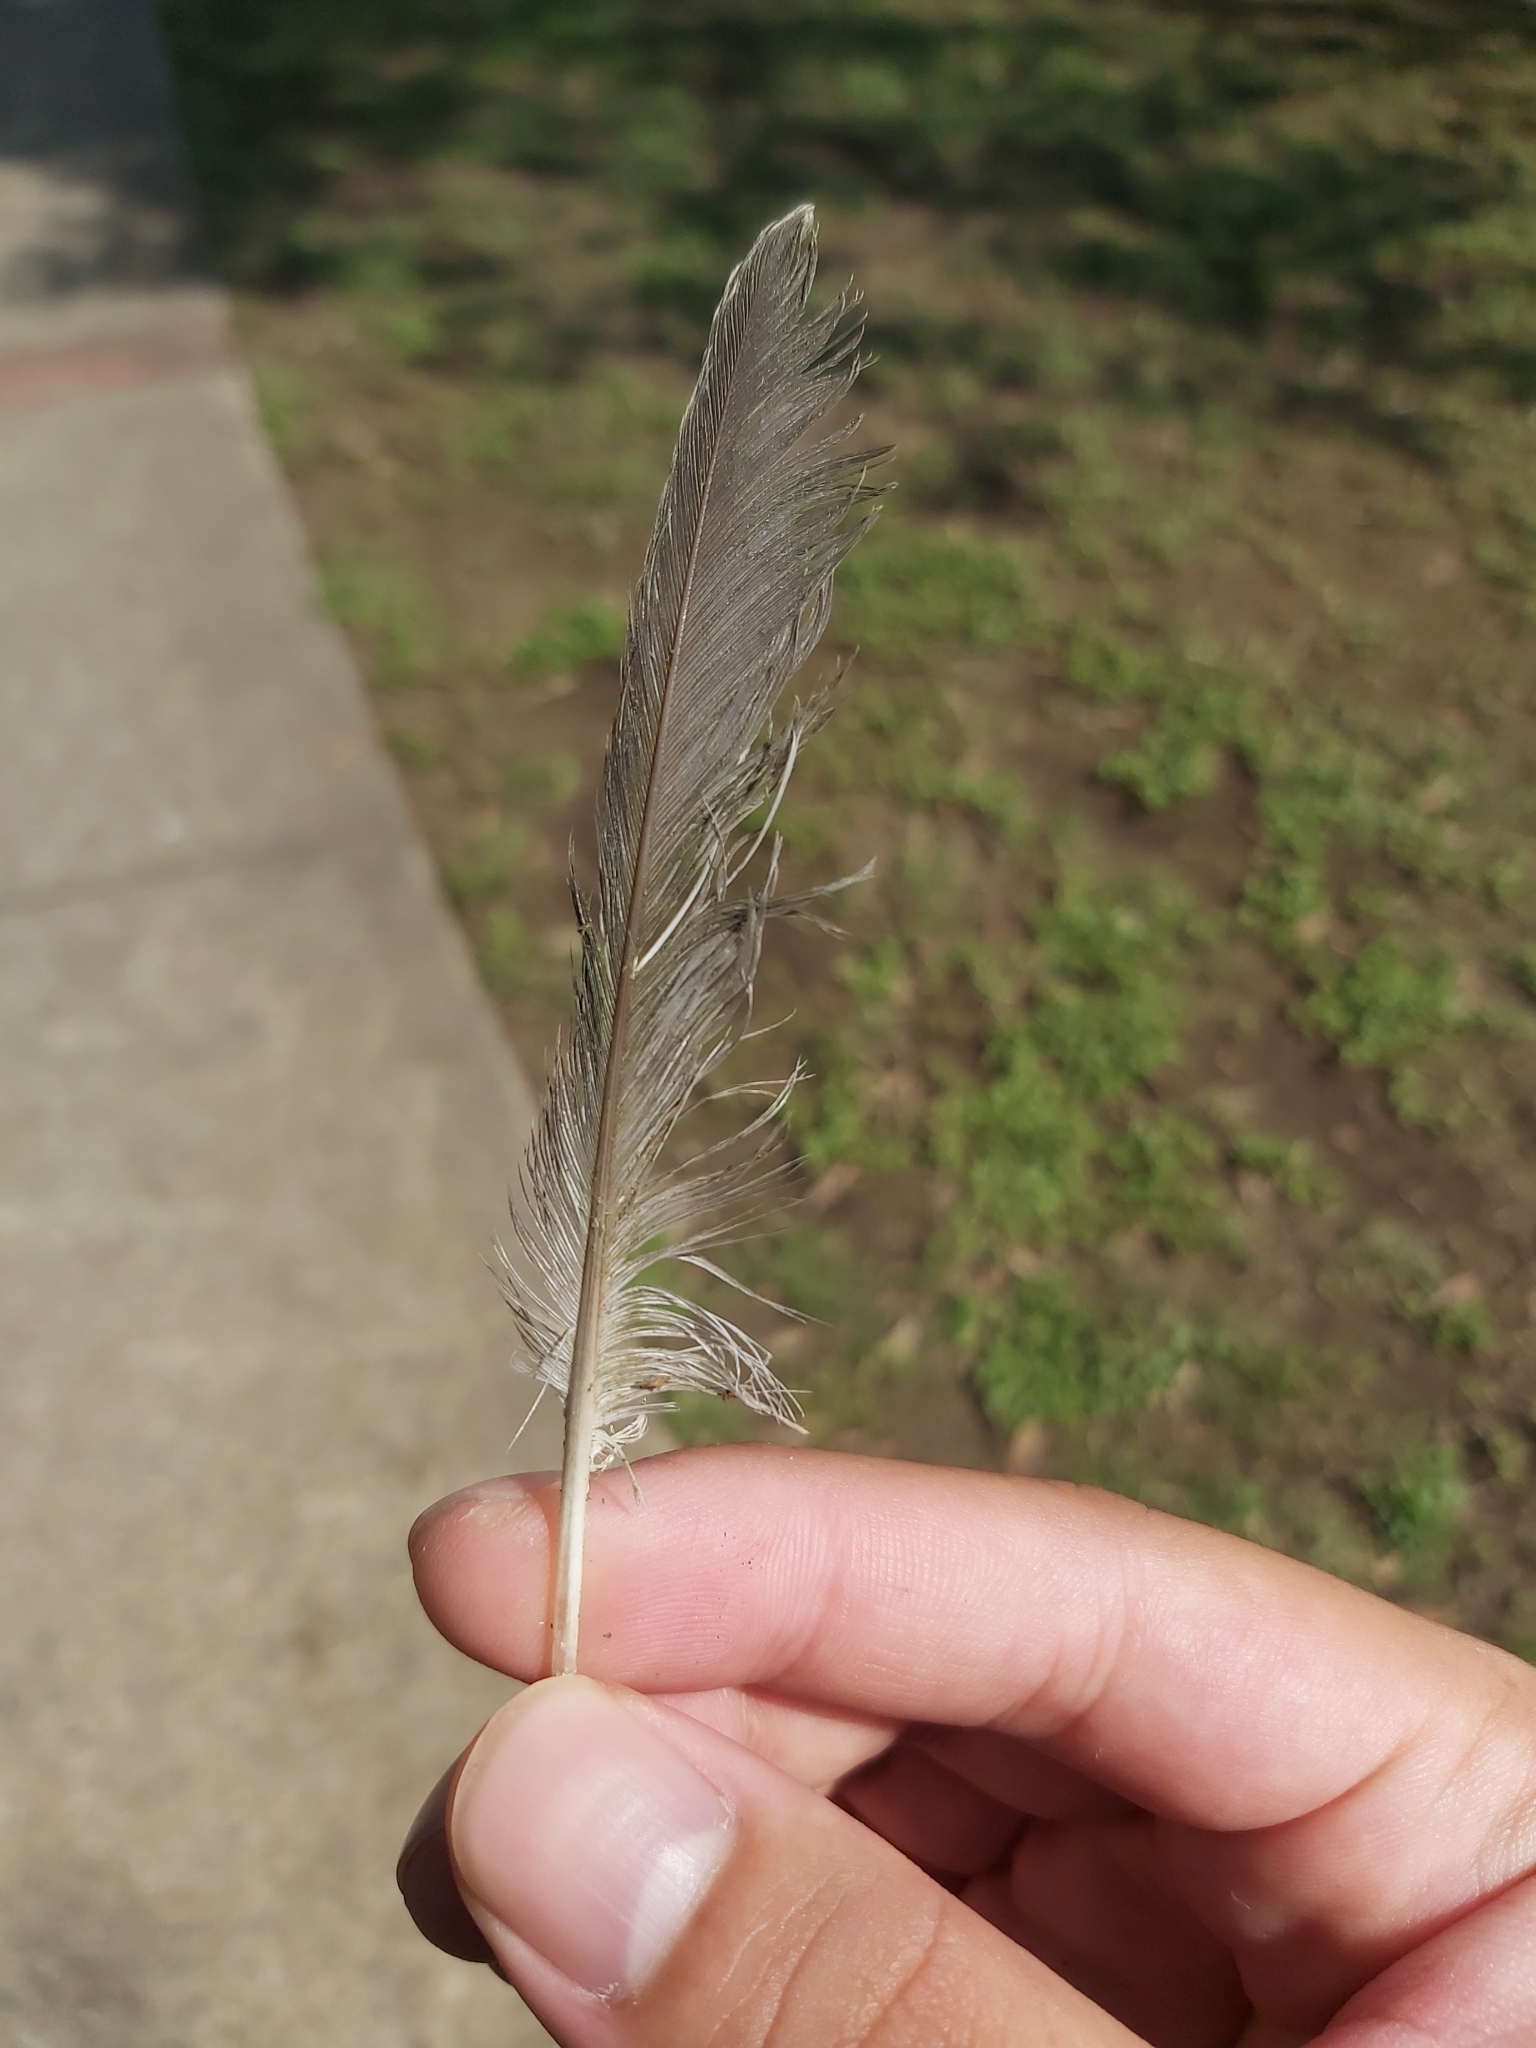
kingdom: Animalia
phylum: Chordata
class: Aves
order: Columbiformes
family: Columbidae
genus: Ocyphaps
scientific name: Ocyphaps lophotes
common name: Crested pigeon
